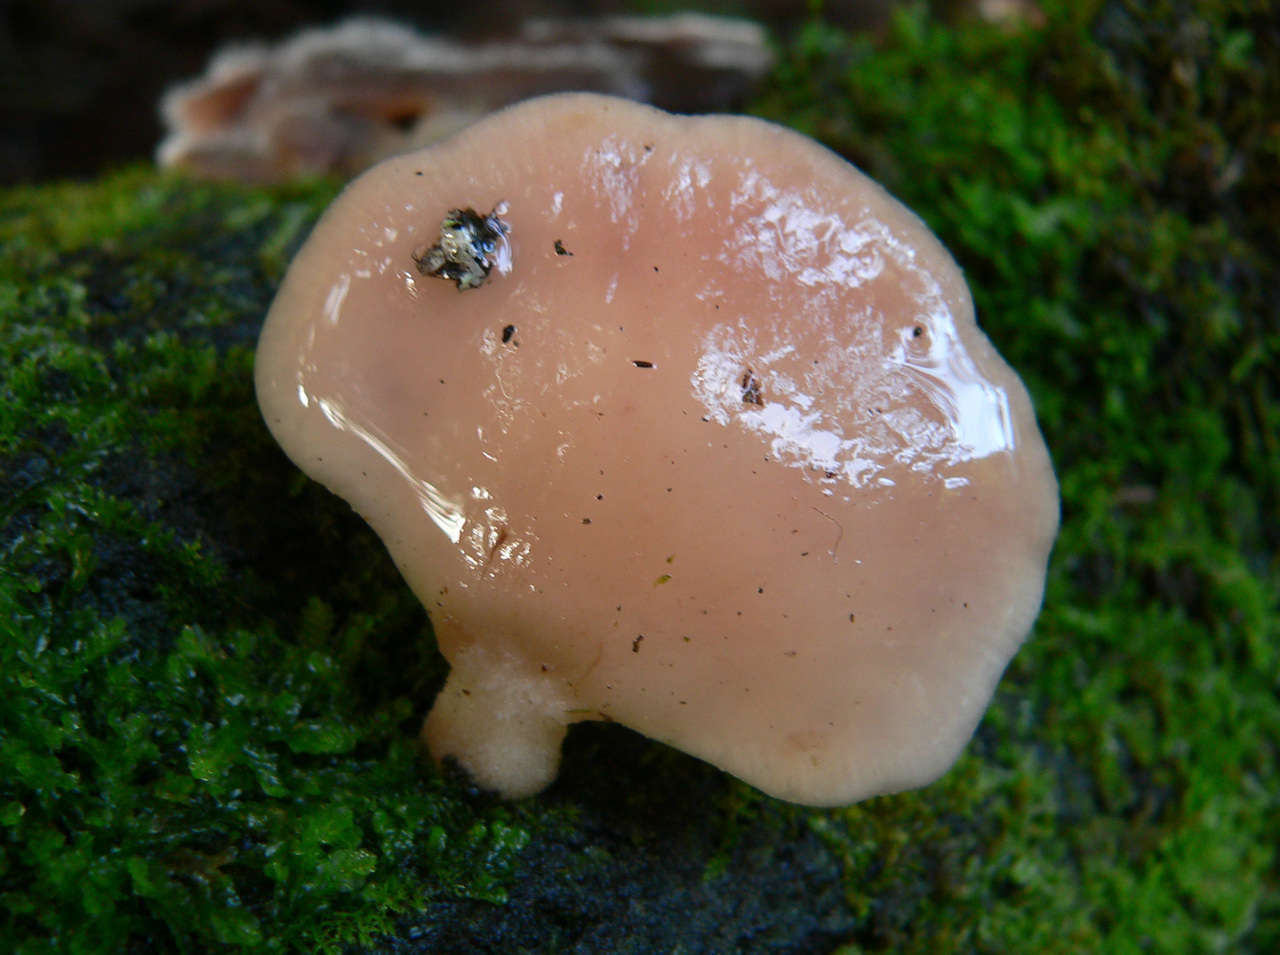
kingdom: Fungi
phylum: Basidiomycota
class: Agaricomycetes
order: Agaricales
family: Mycenaceae
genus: Panellus
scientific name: Panellus longinquus
